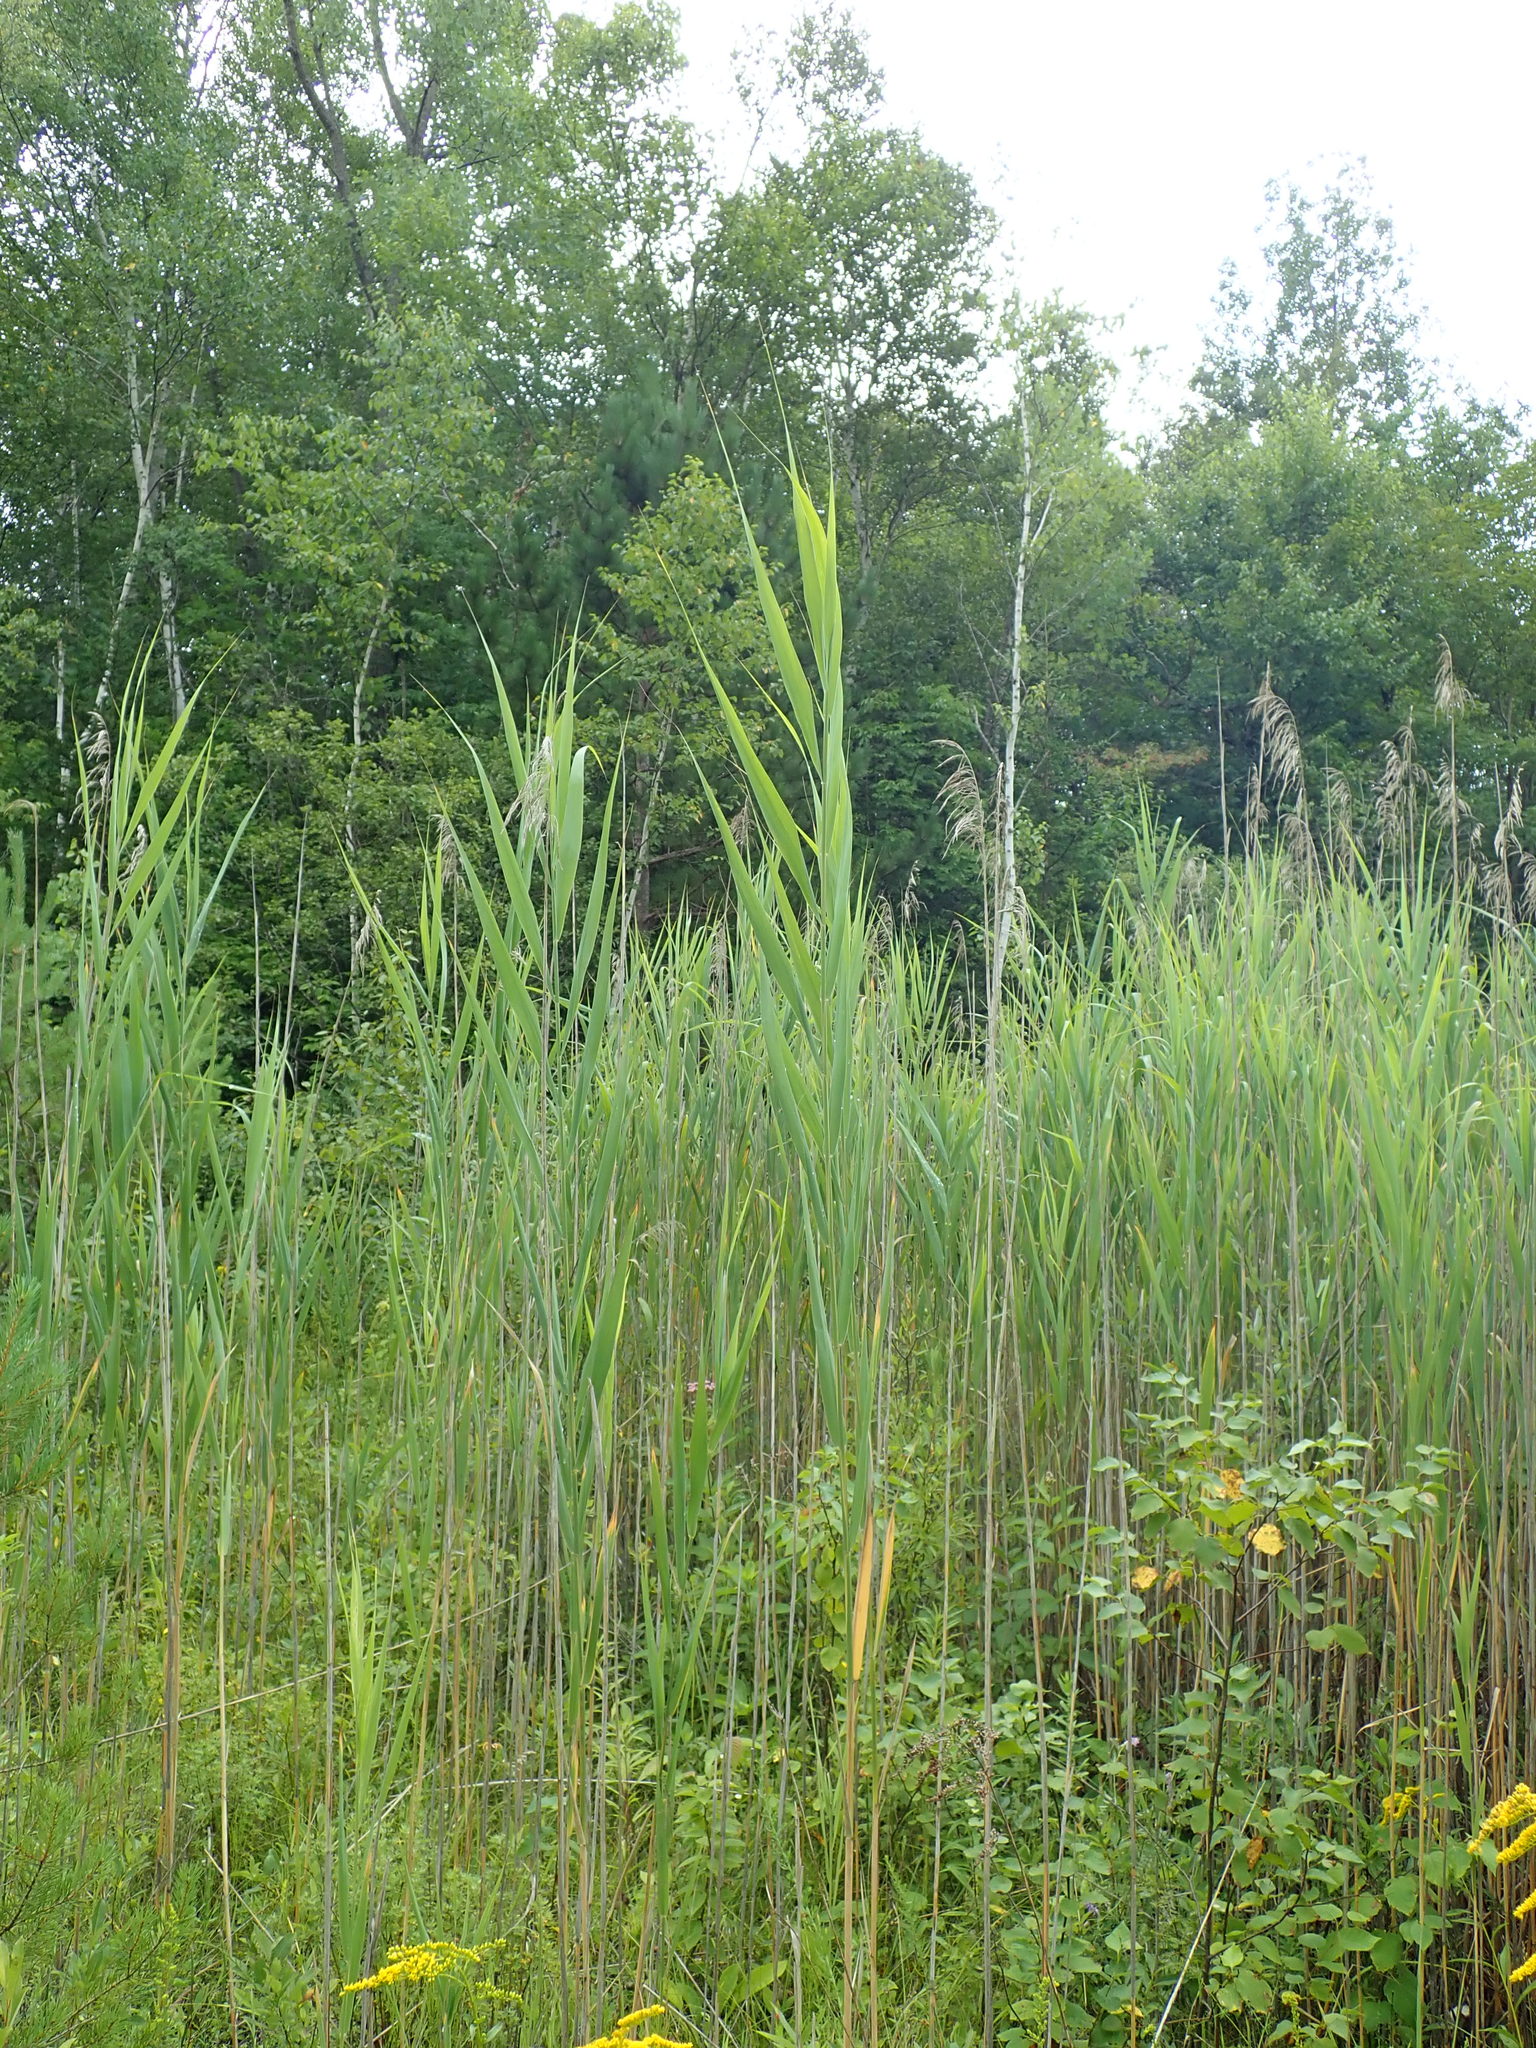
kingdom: Plantae
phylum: Tracheophyta
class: Liliopsida
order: Poales
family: Poaceae
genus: Phragmites
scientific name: Phragmites australis
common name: Common reed
